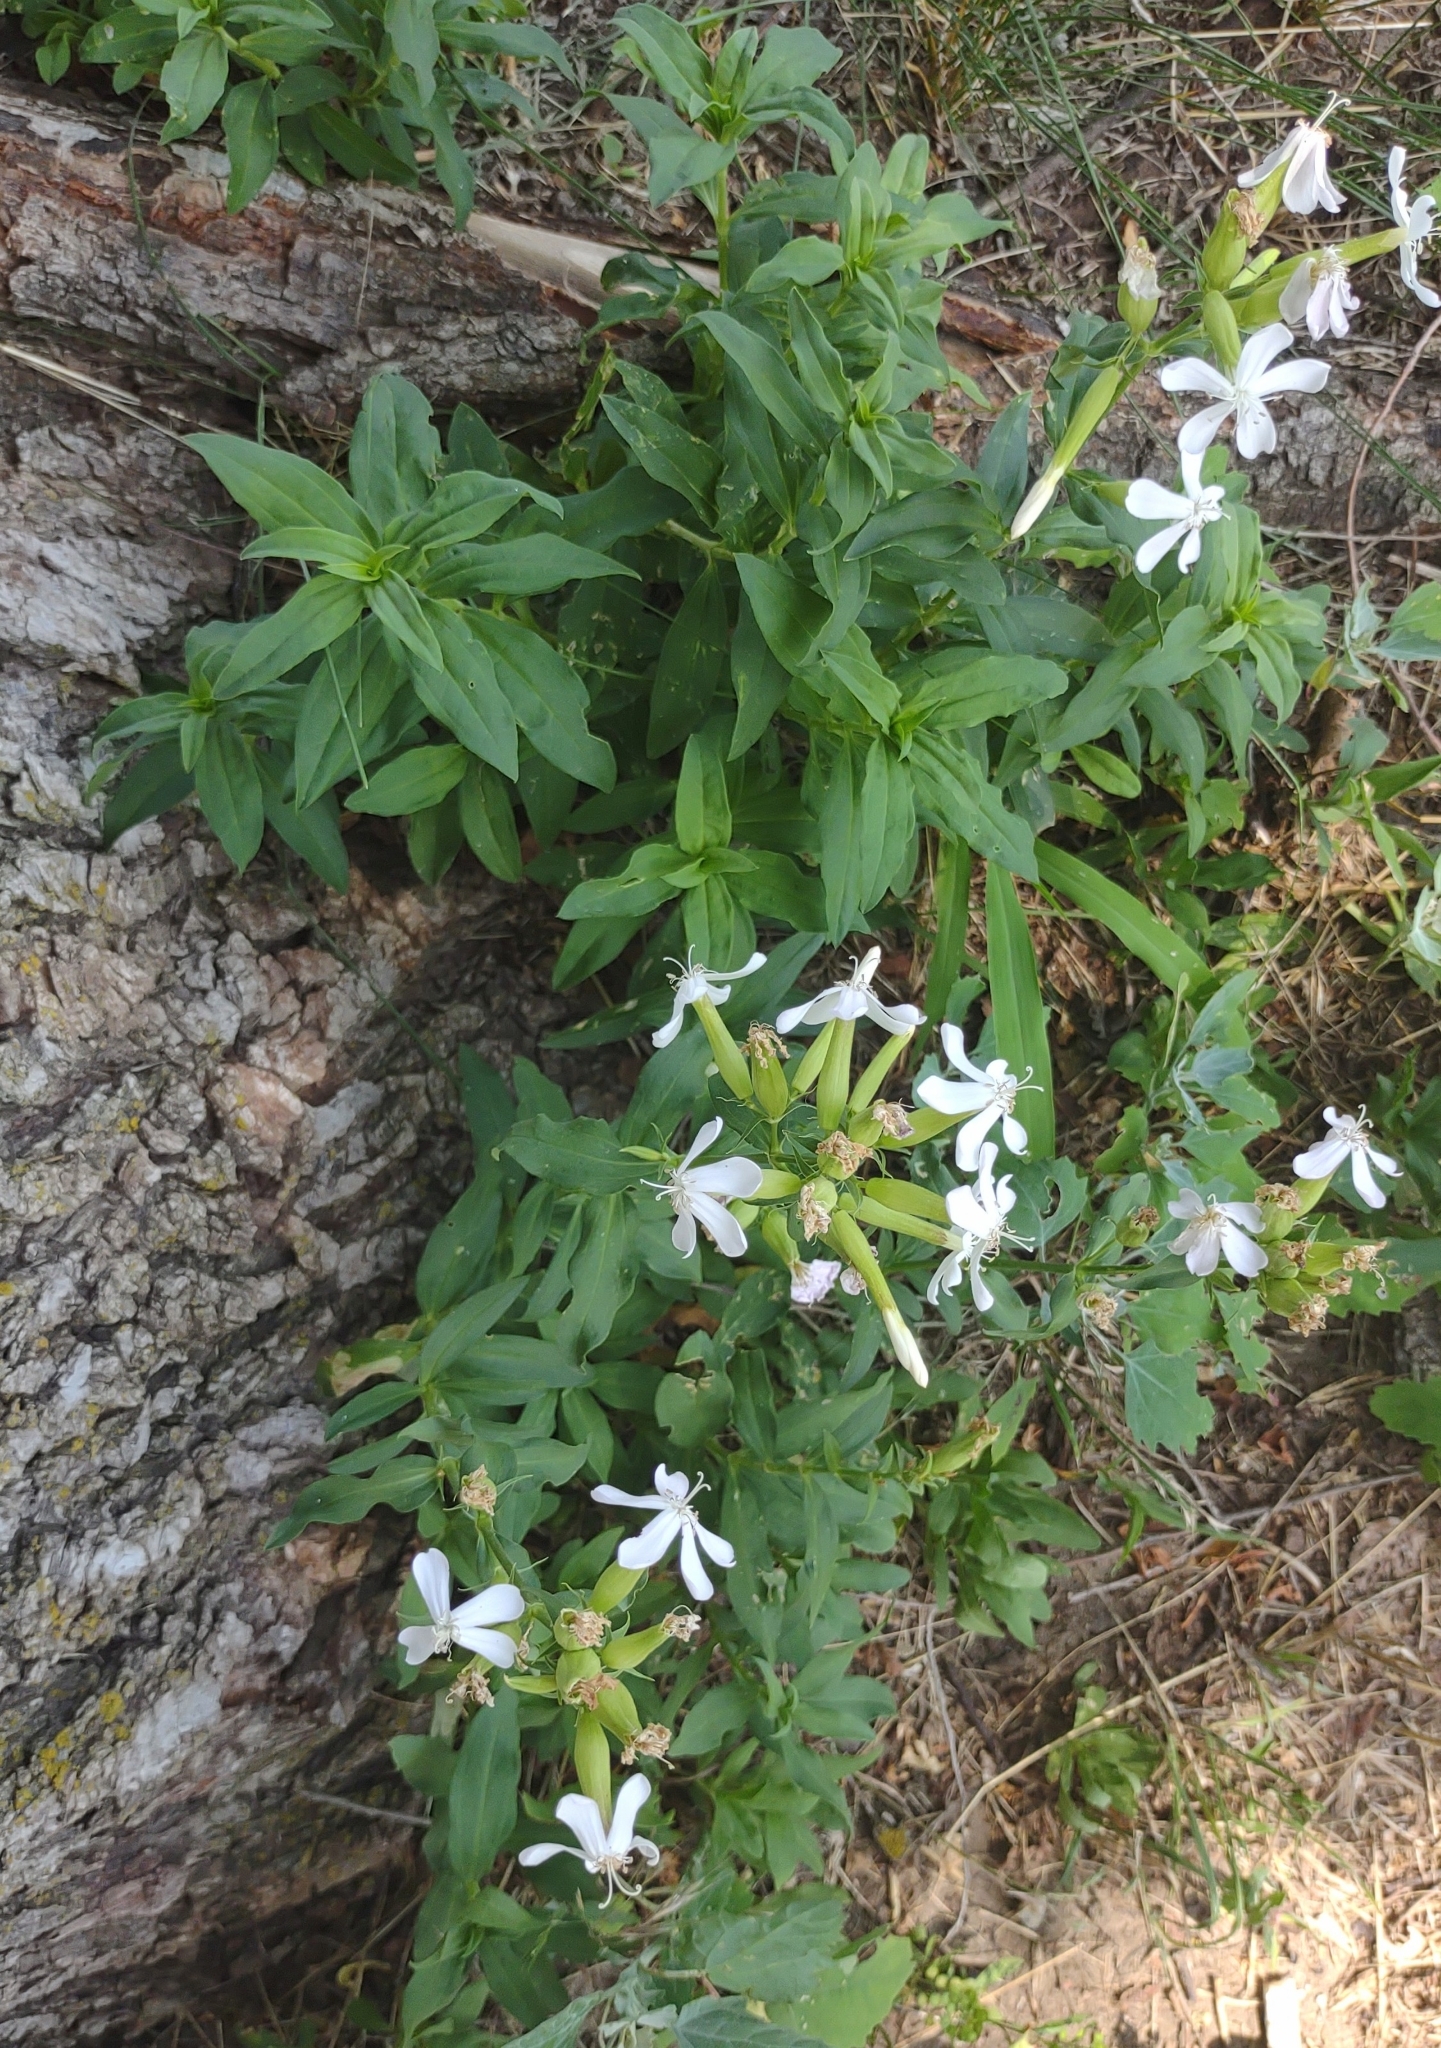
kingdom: Plantae
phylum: Tracheophyta
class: Magnoliopsida
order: Caryophyllales
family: Caryophyllaceae
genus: Saponaria
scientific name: Saponaria officinalis
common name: Soapwort
